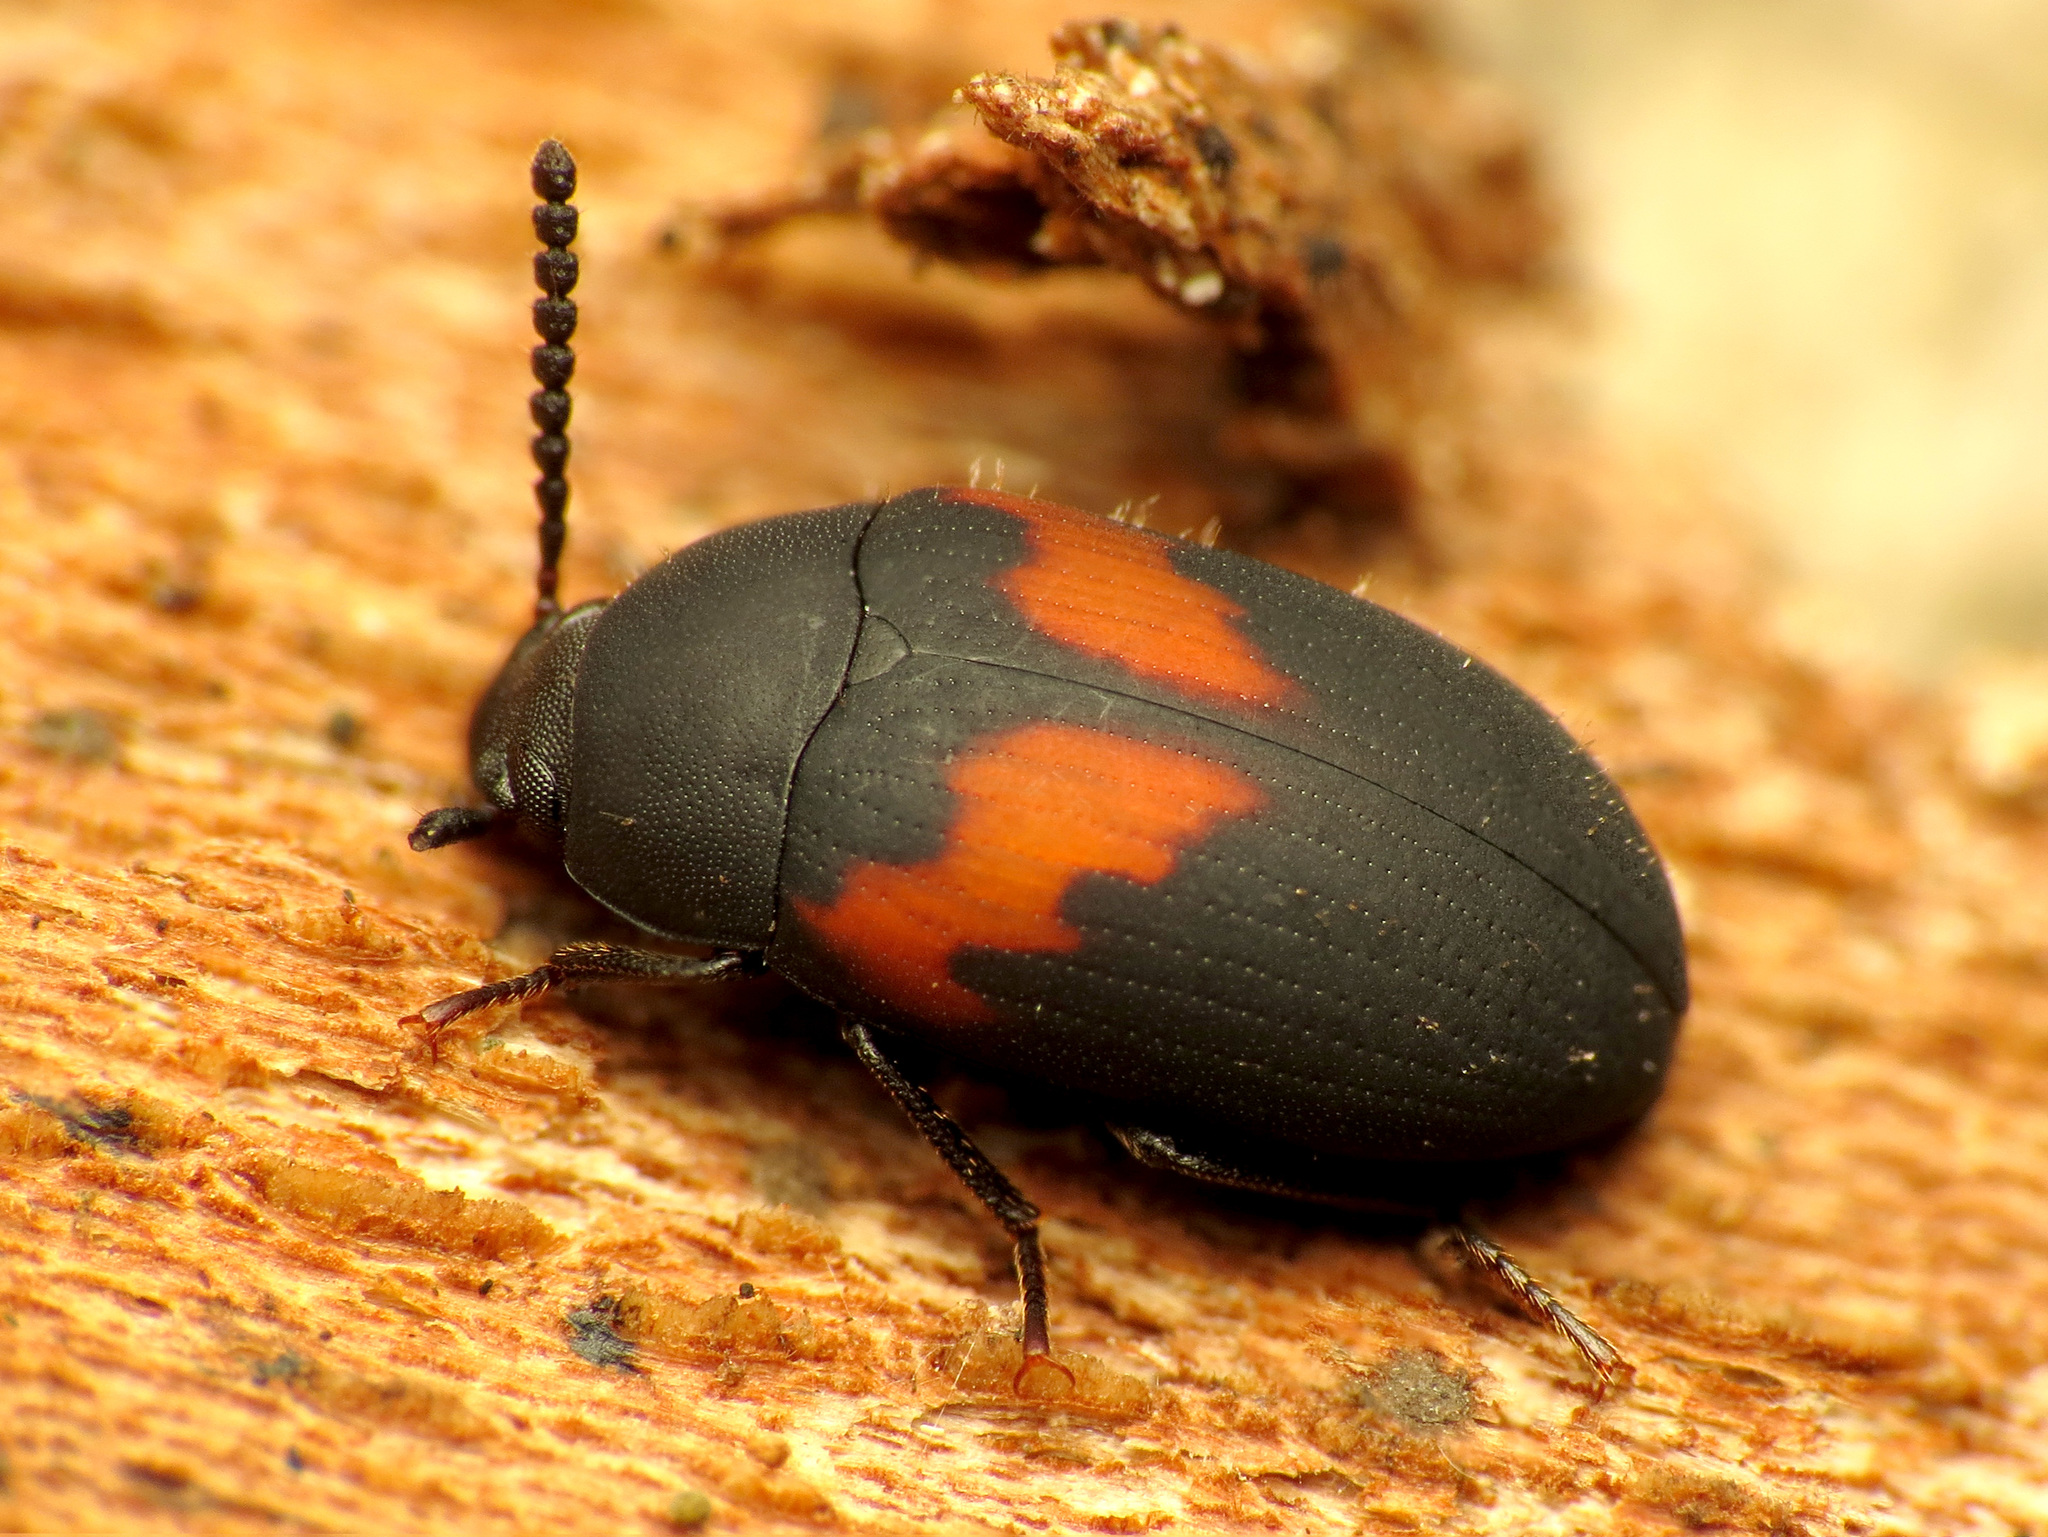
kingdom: Animalia
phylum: Arthropoda
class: Insecta
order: Coleoptera
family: Tenebrionidae
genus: Platydema
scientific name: Platydema elliptica
